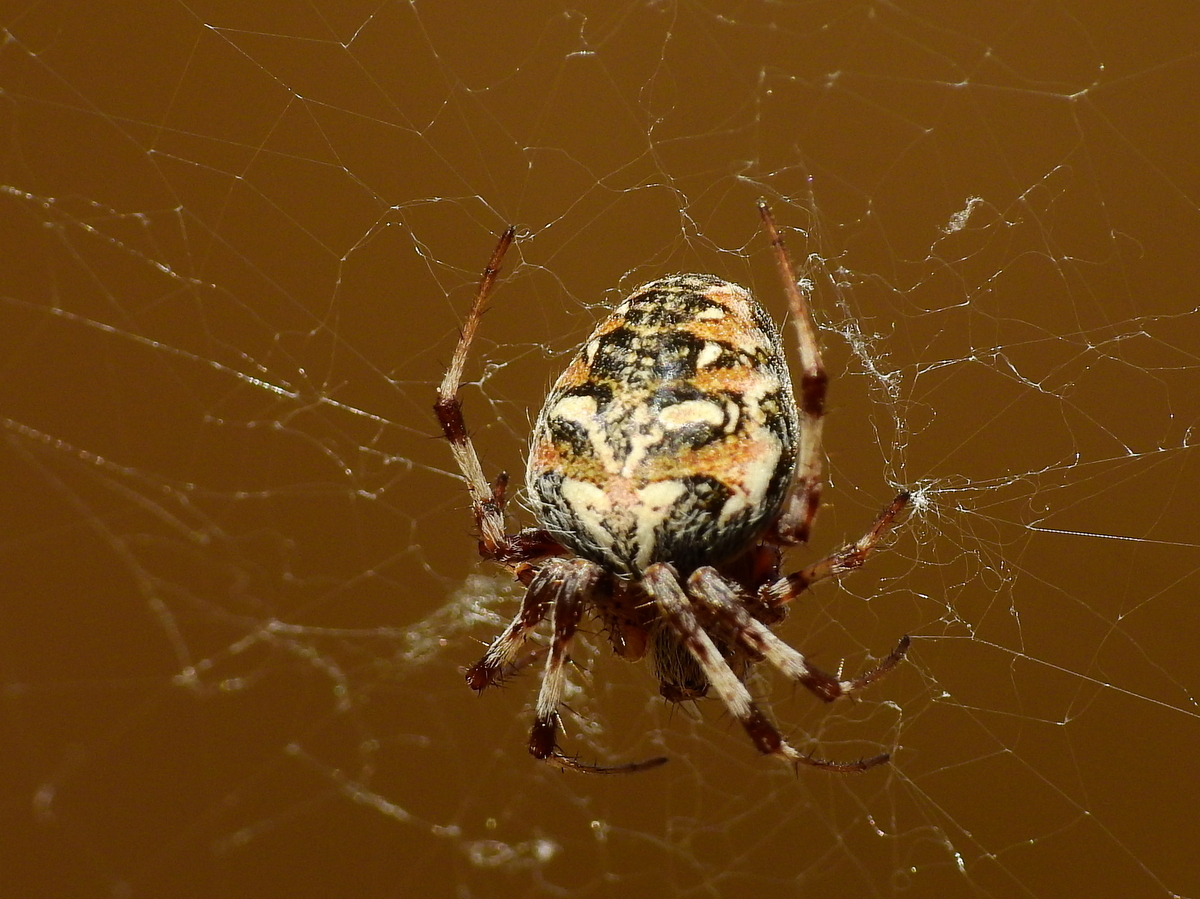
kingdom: Animalia
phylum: Arthropoda
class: Arachnida
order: Araneae
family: Araneidae
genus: Metepeira
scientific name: Metepeira
